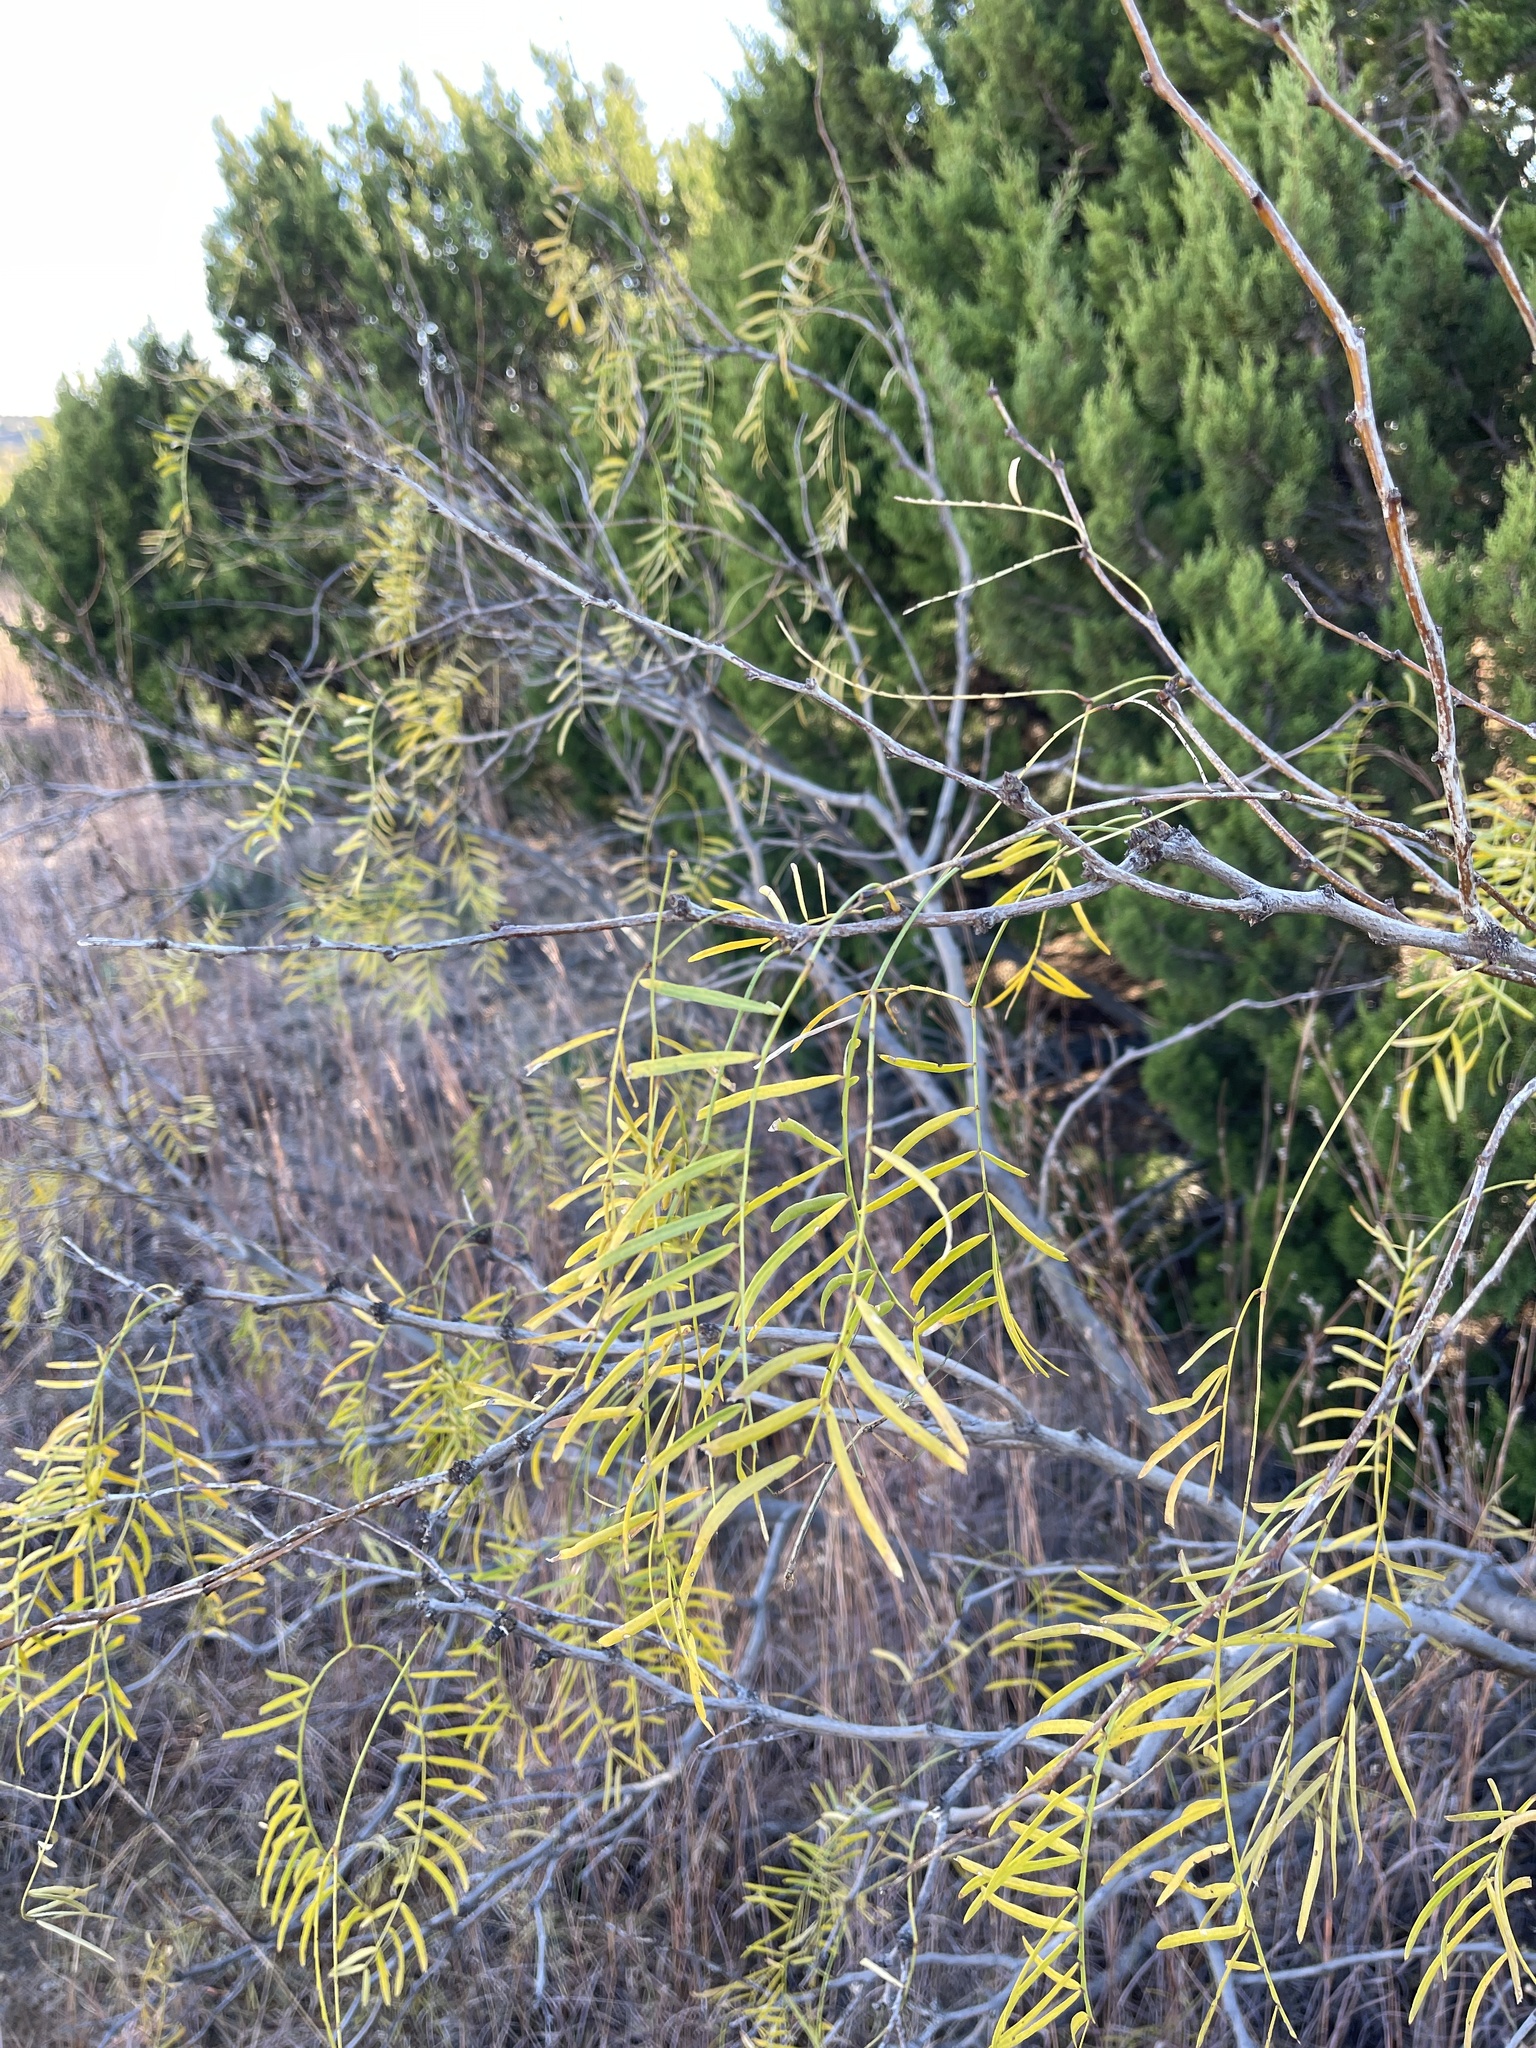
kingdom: Plantae
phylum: Tracheophyta
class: Magnoliopsida
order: Fabales
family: Fabaceae
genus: Prosopis
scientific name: Prosopis glandulosa
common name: Honey mesquite
